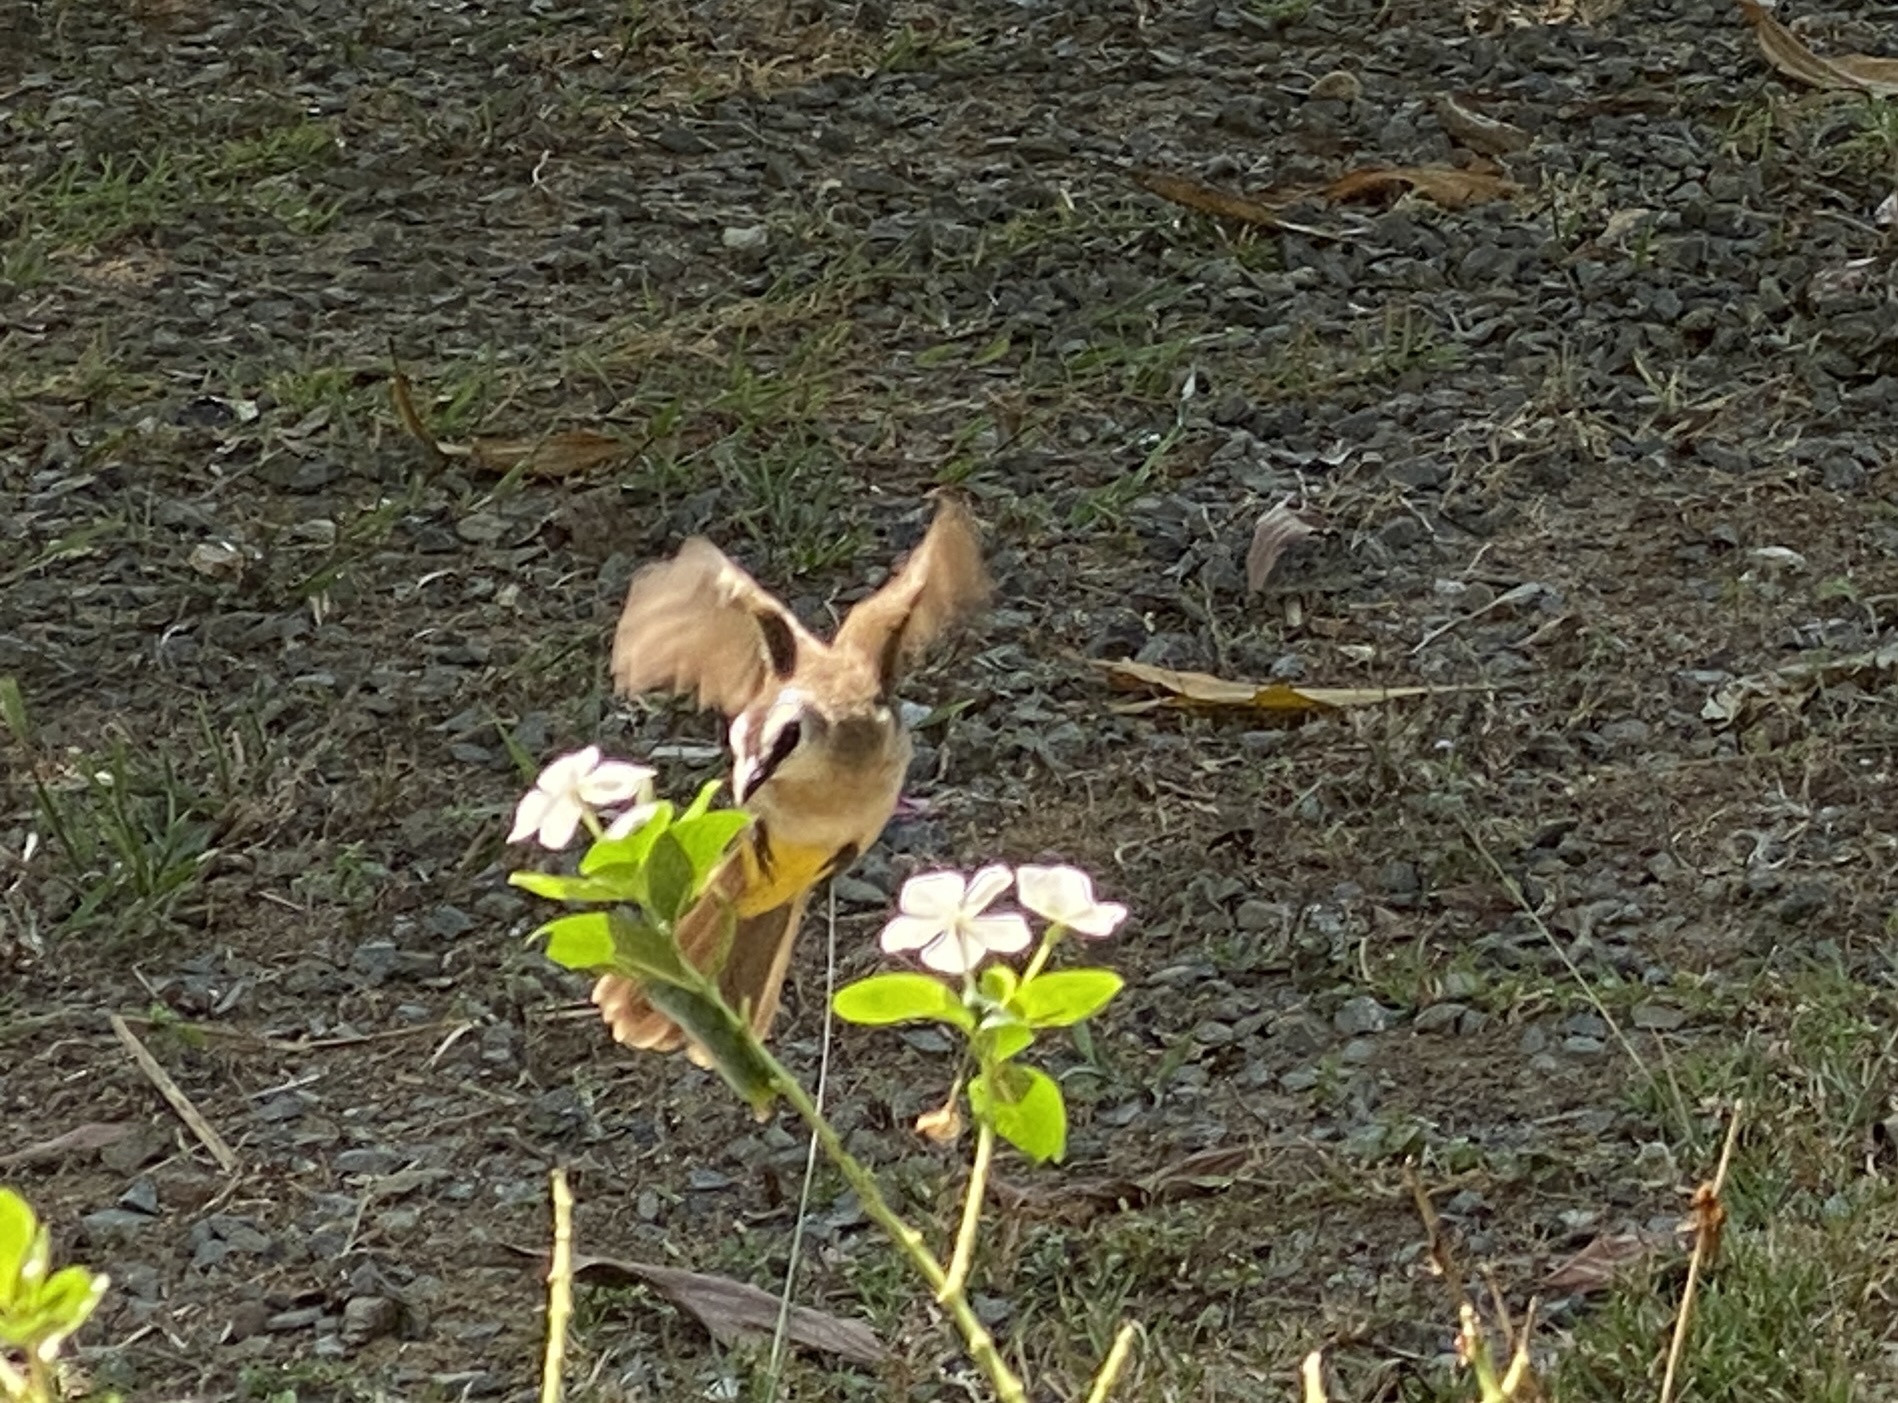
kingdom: Animalia
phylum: Chordata
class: Aves
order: Passeriformes
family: Pycnonotidae
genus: Pycnonotus
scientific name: Pycnonotus goiavier
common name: Yellow-vented bulbul
